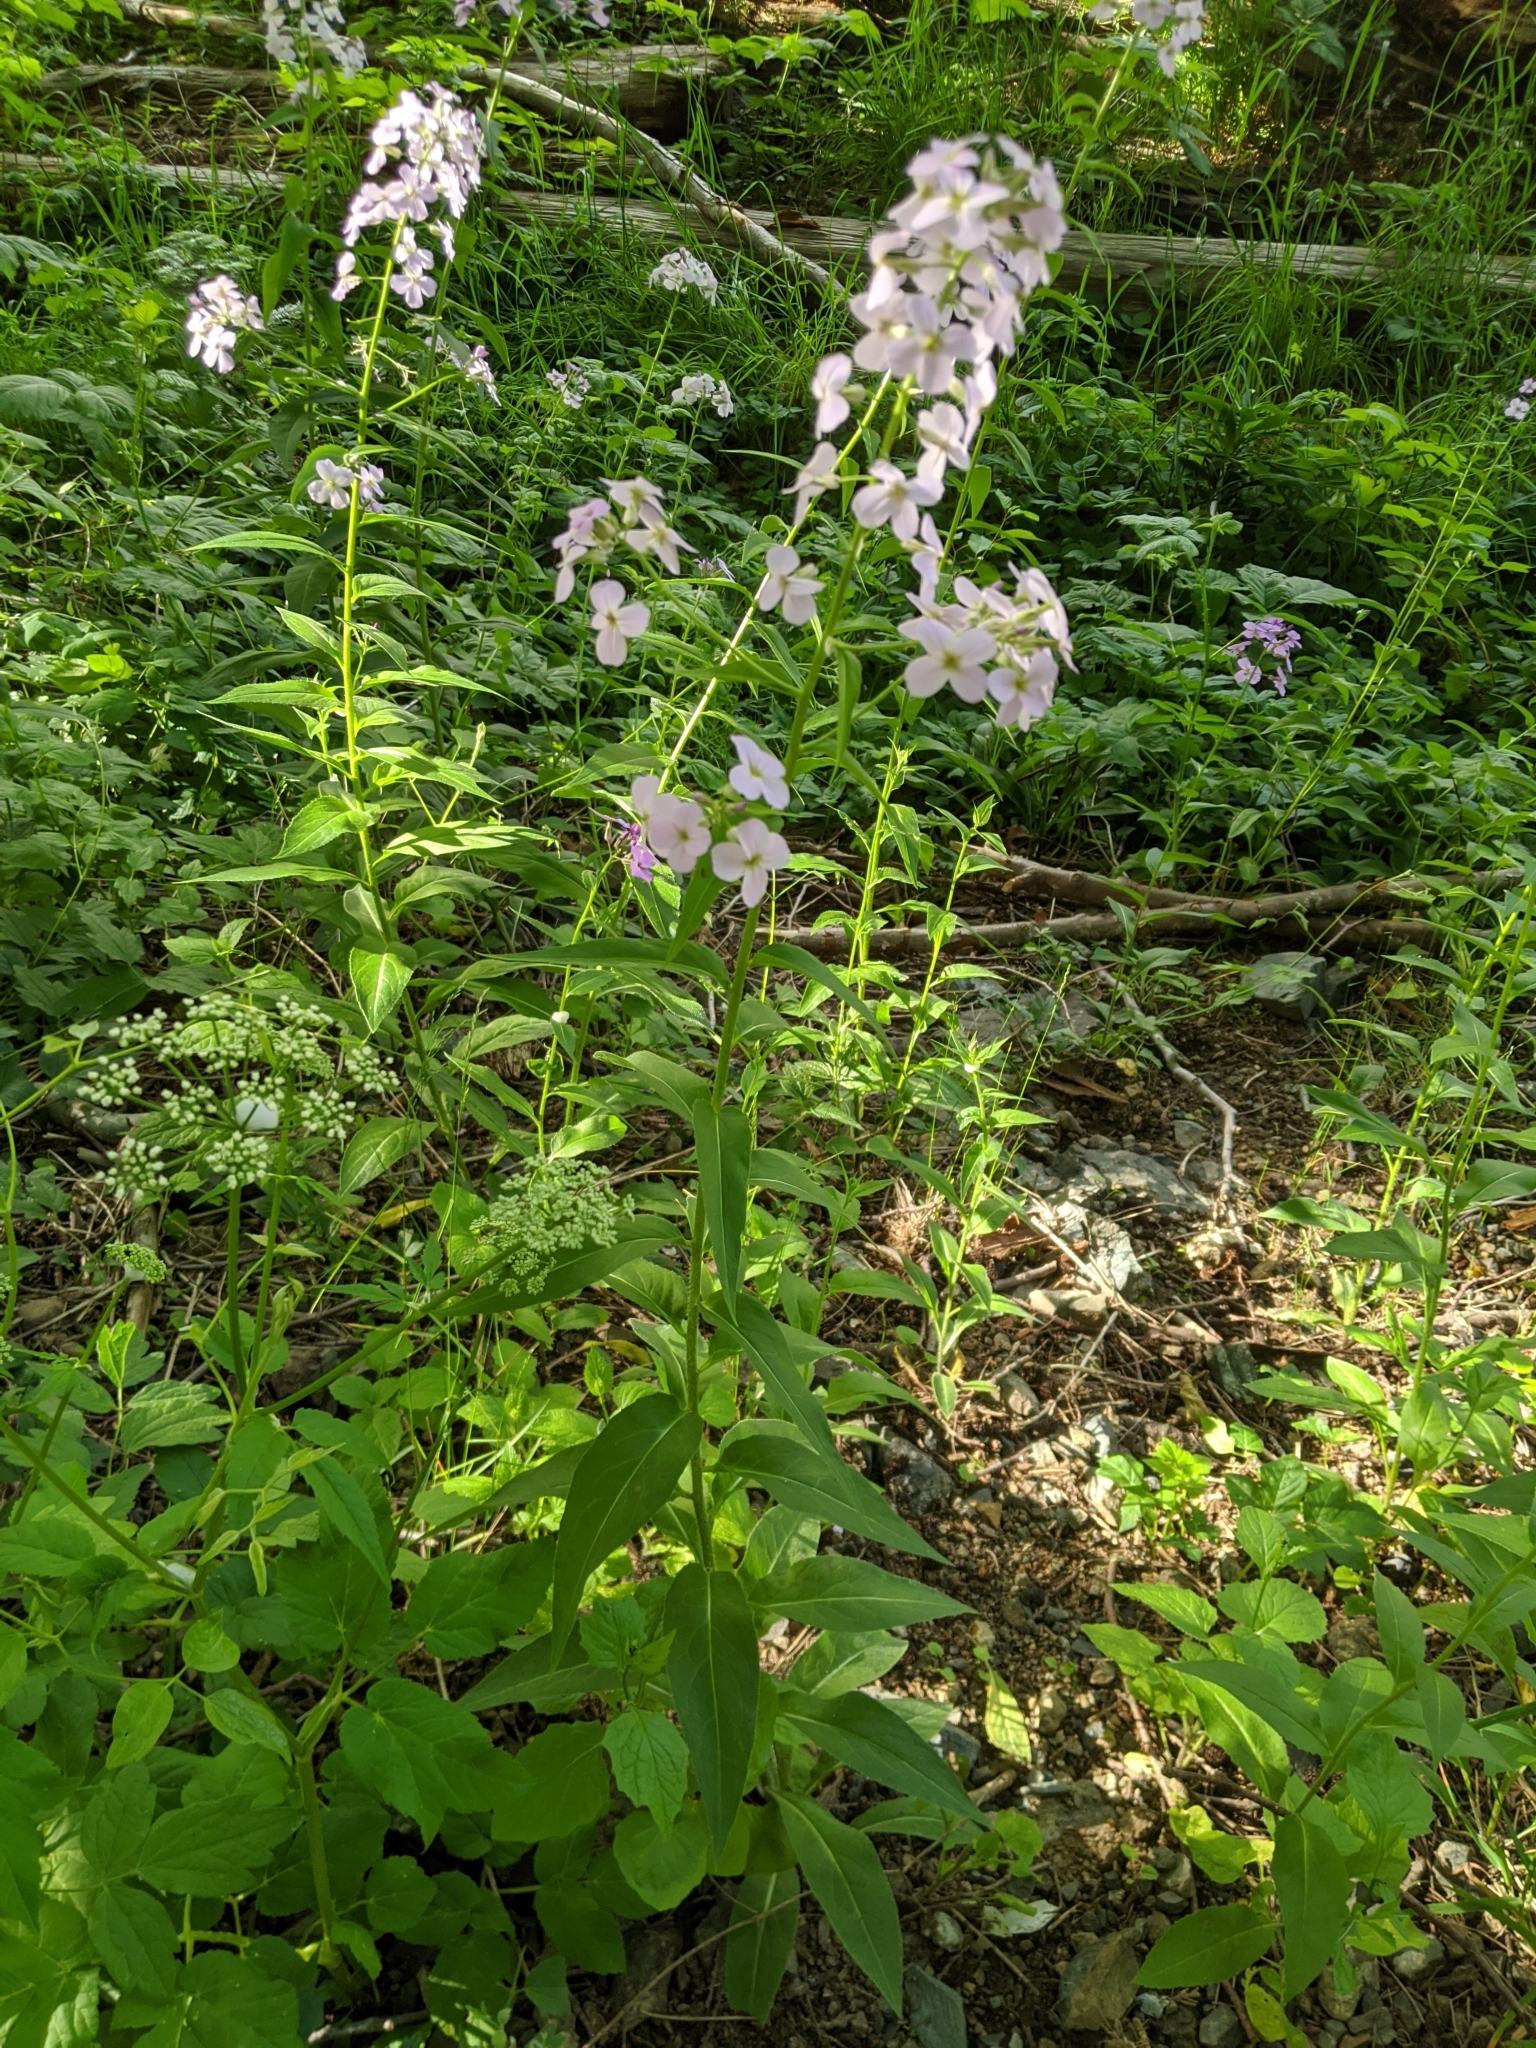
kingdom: Plantae
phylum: Tracheophyta
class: Magnoliopsida
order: Brassicales
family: Brassicaceae
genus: Hesperis
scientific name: Hesperis matronalis
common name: Dame's-violet
